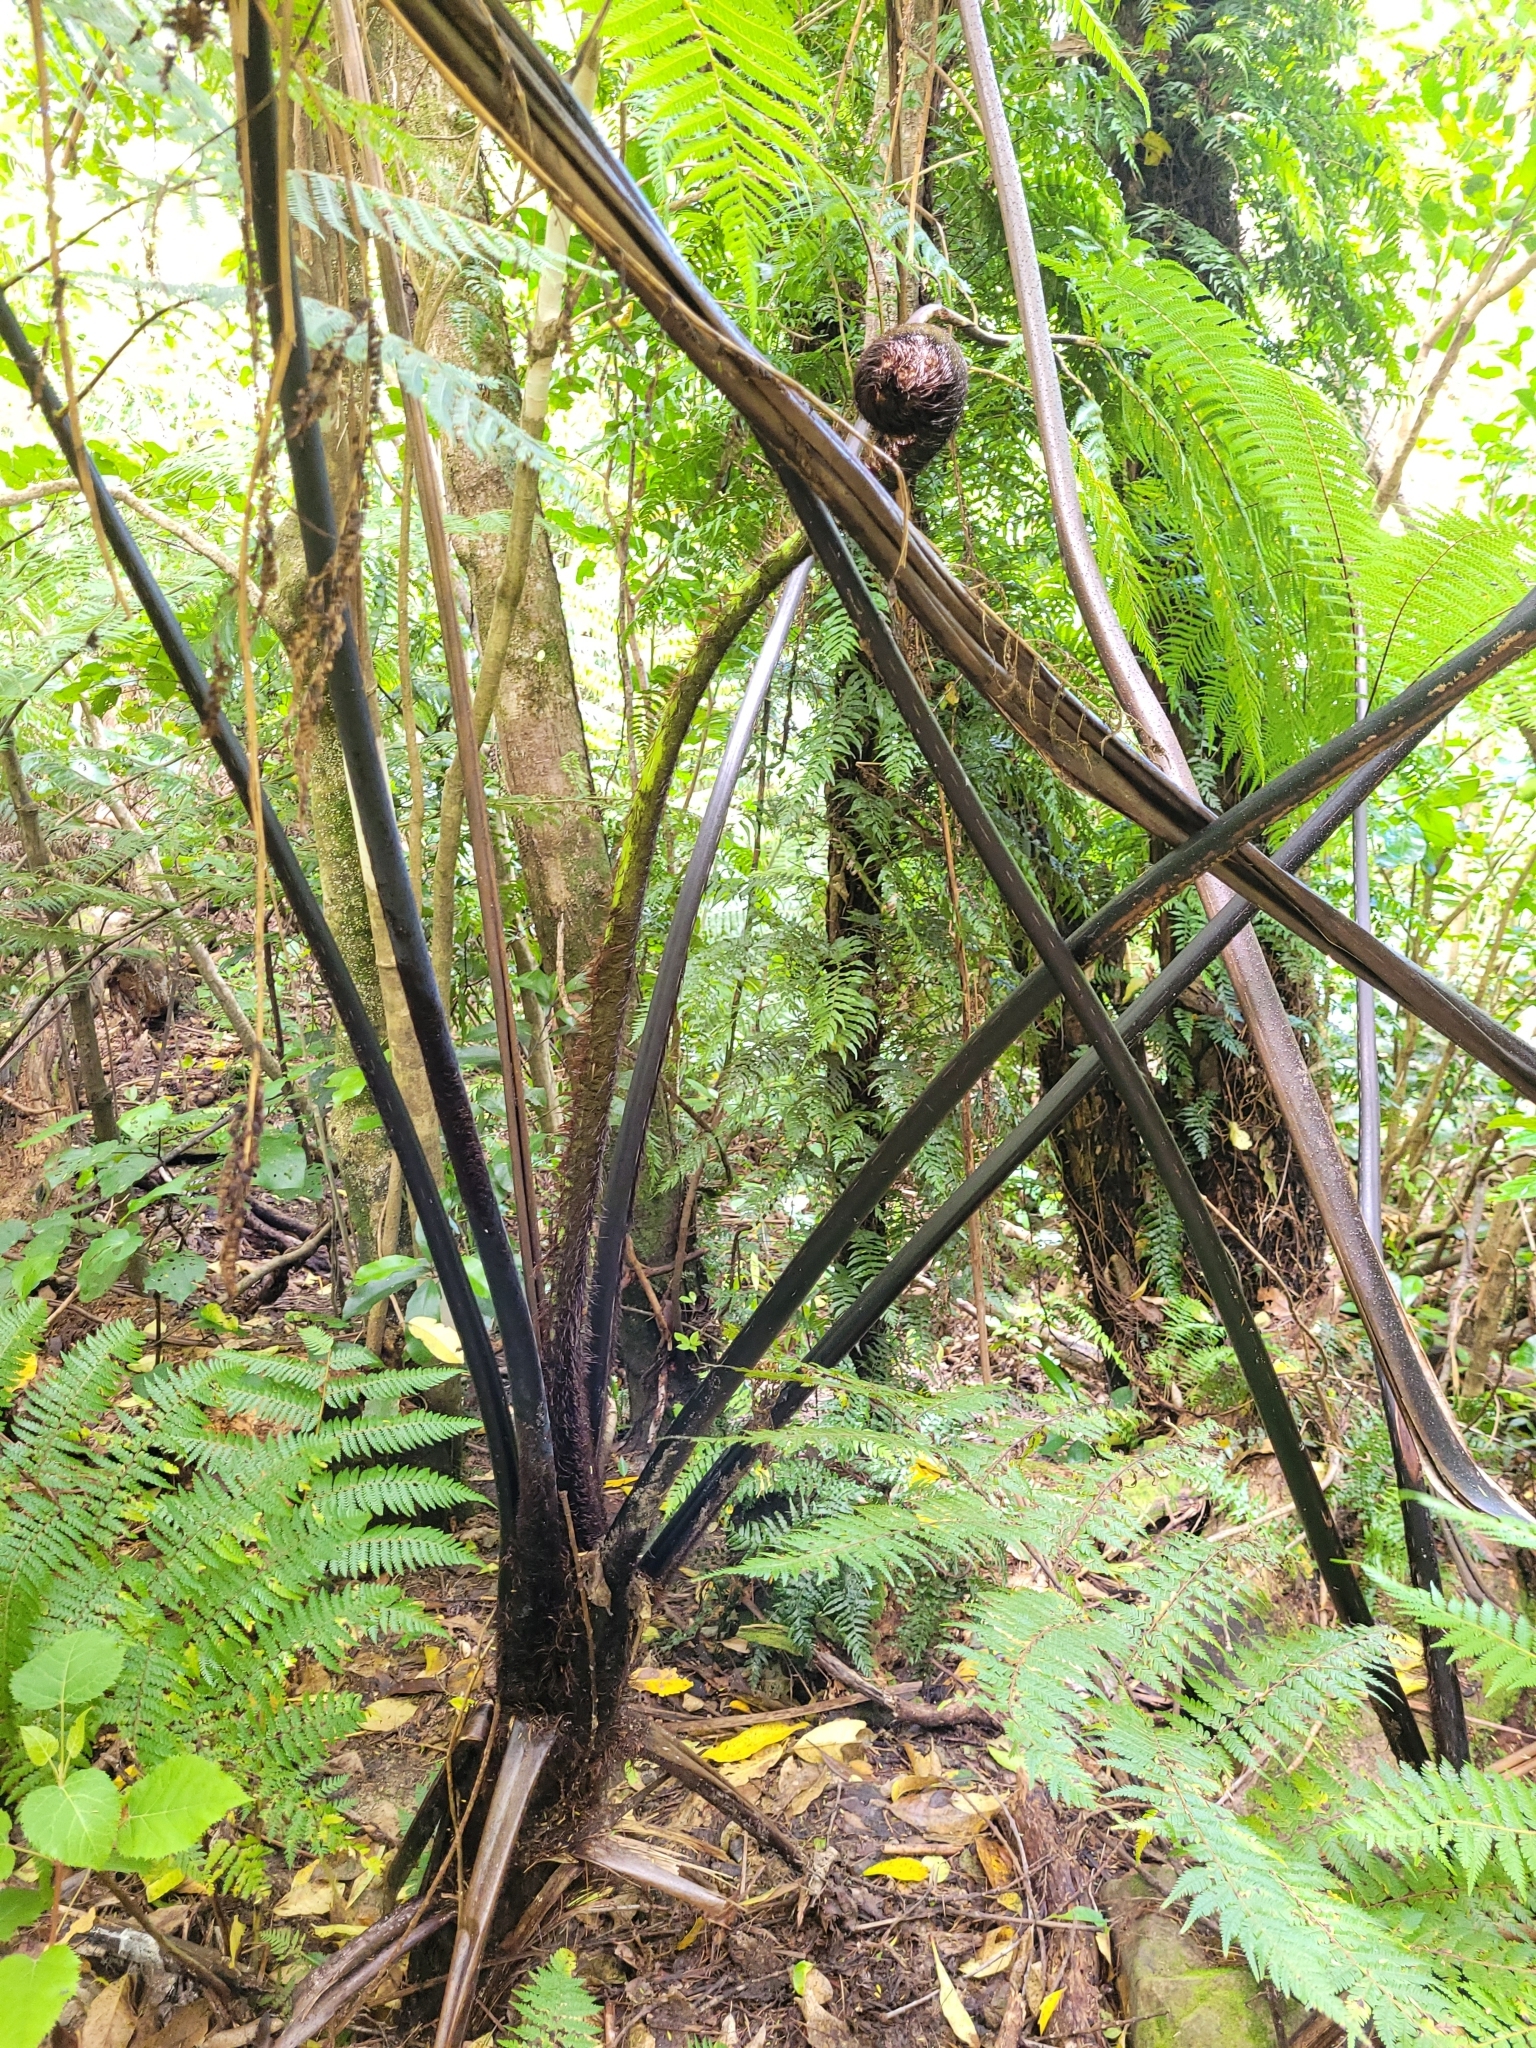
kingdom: Plantae
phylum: Tracheophyta
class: Polypodiopsida
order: Cyatheales
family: Cyatheaceae
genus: Sphaeropteris
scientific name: Sphaeropteris medullaris
